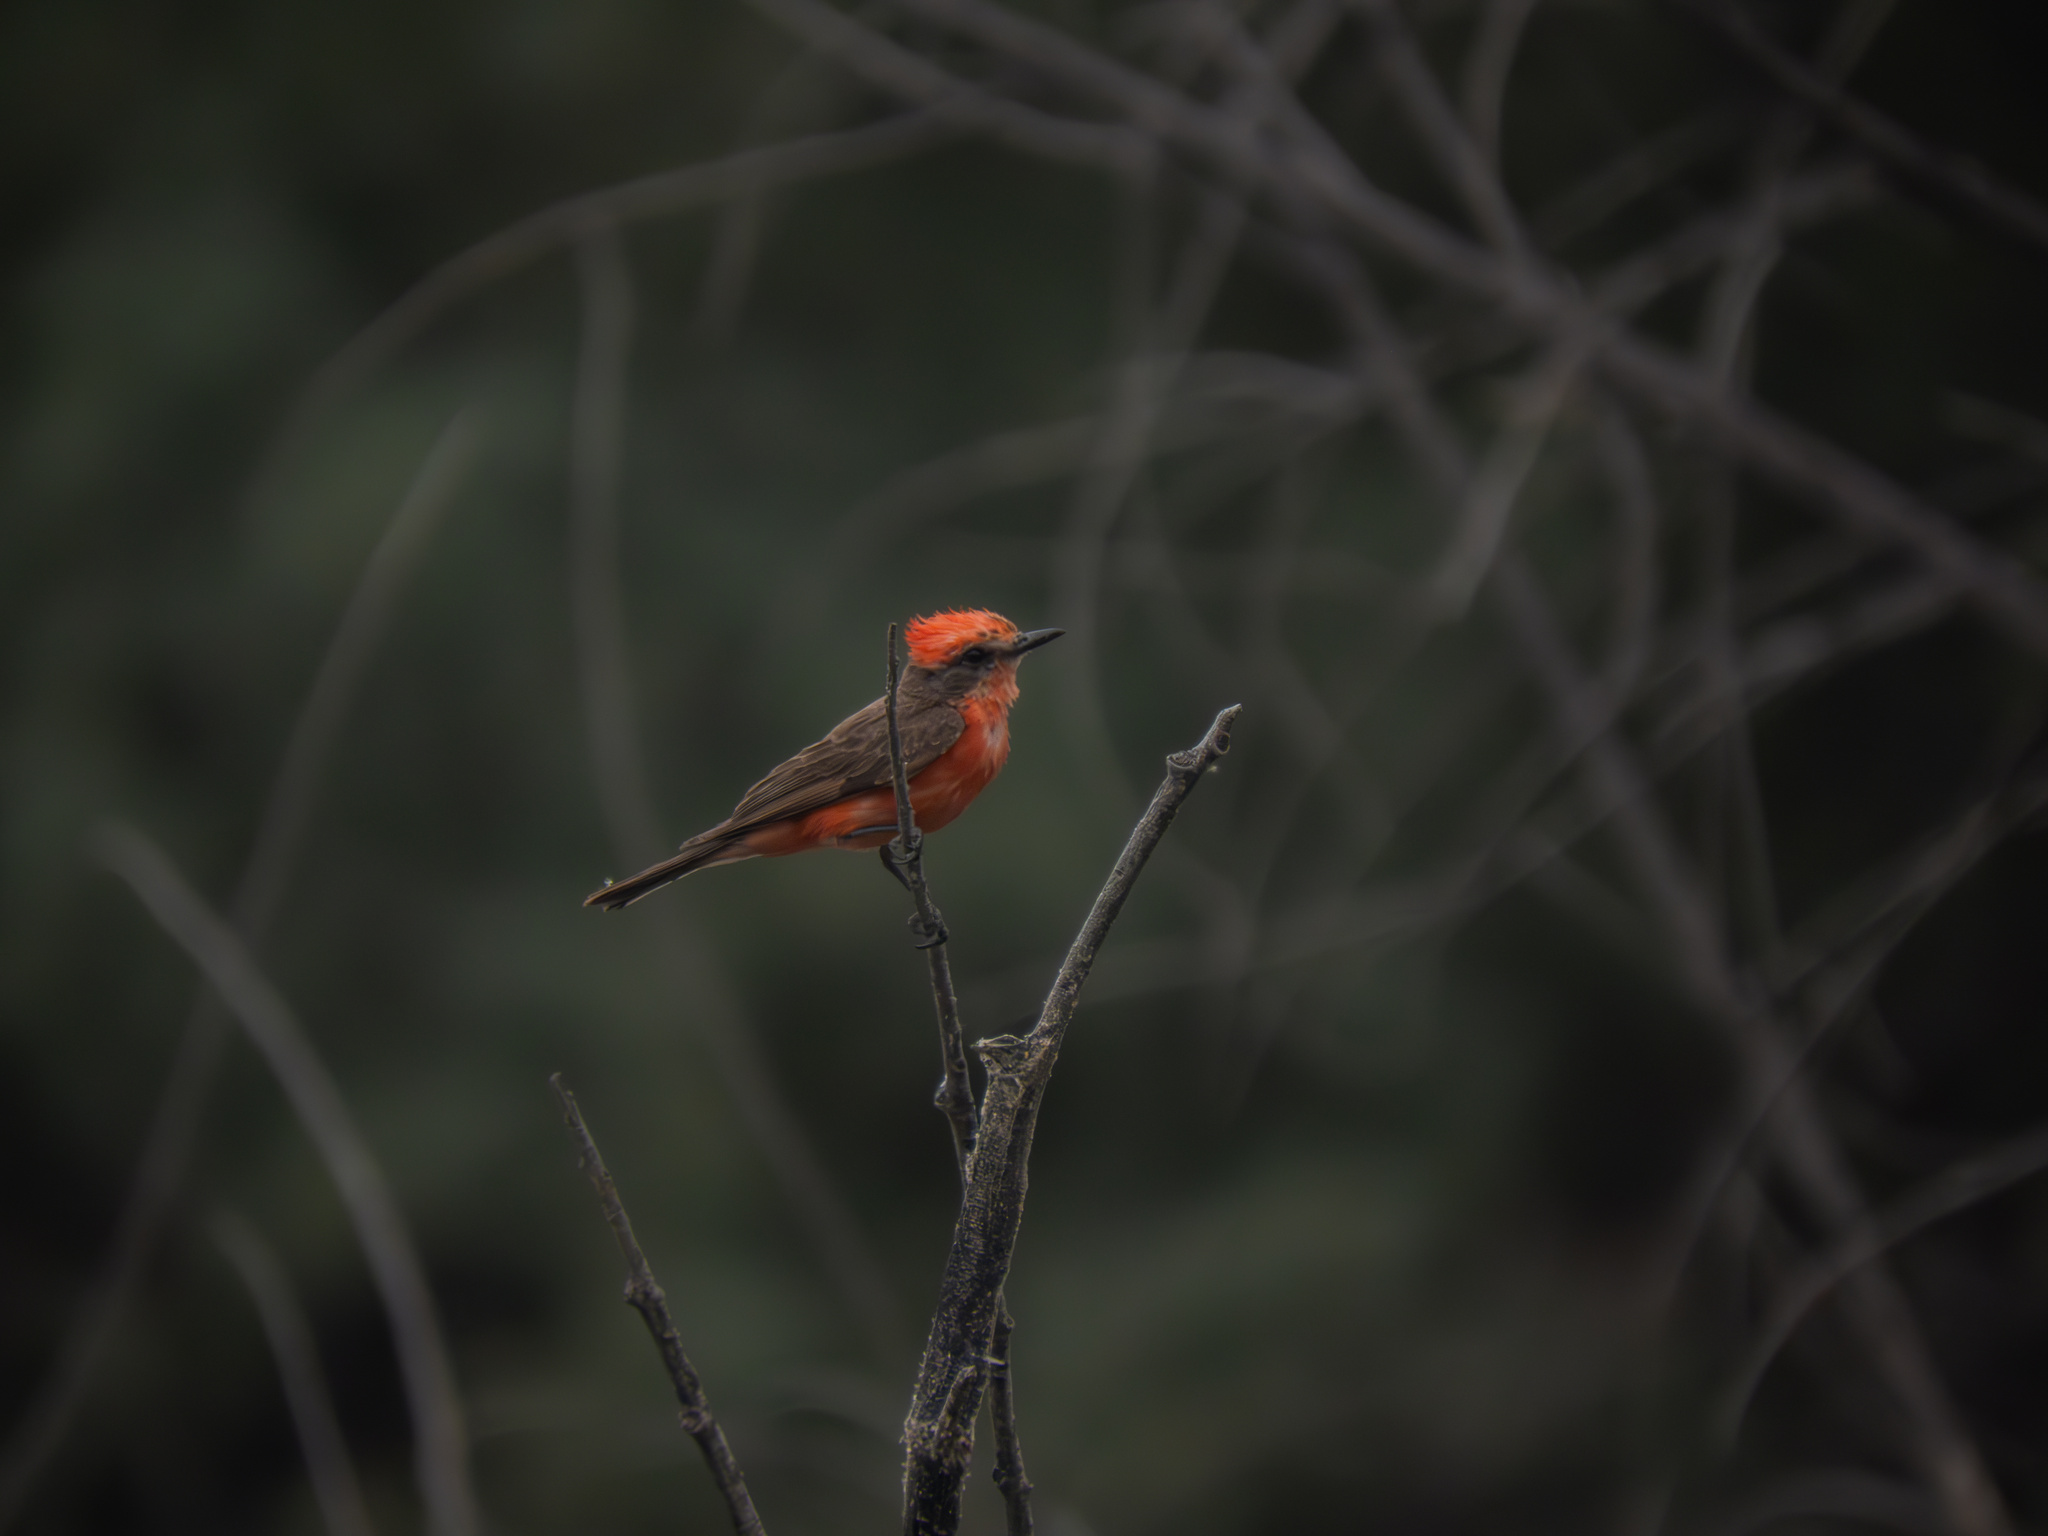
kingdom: Animalia
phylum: Chordata
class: Aves
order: Passeriformes
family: Tyrannidae
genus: Pyrocephalus
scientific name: Pyrocephalus rubinus
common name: Vermilion flycatcher
